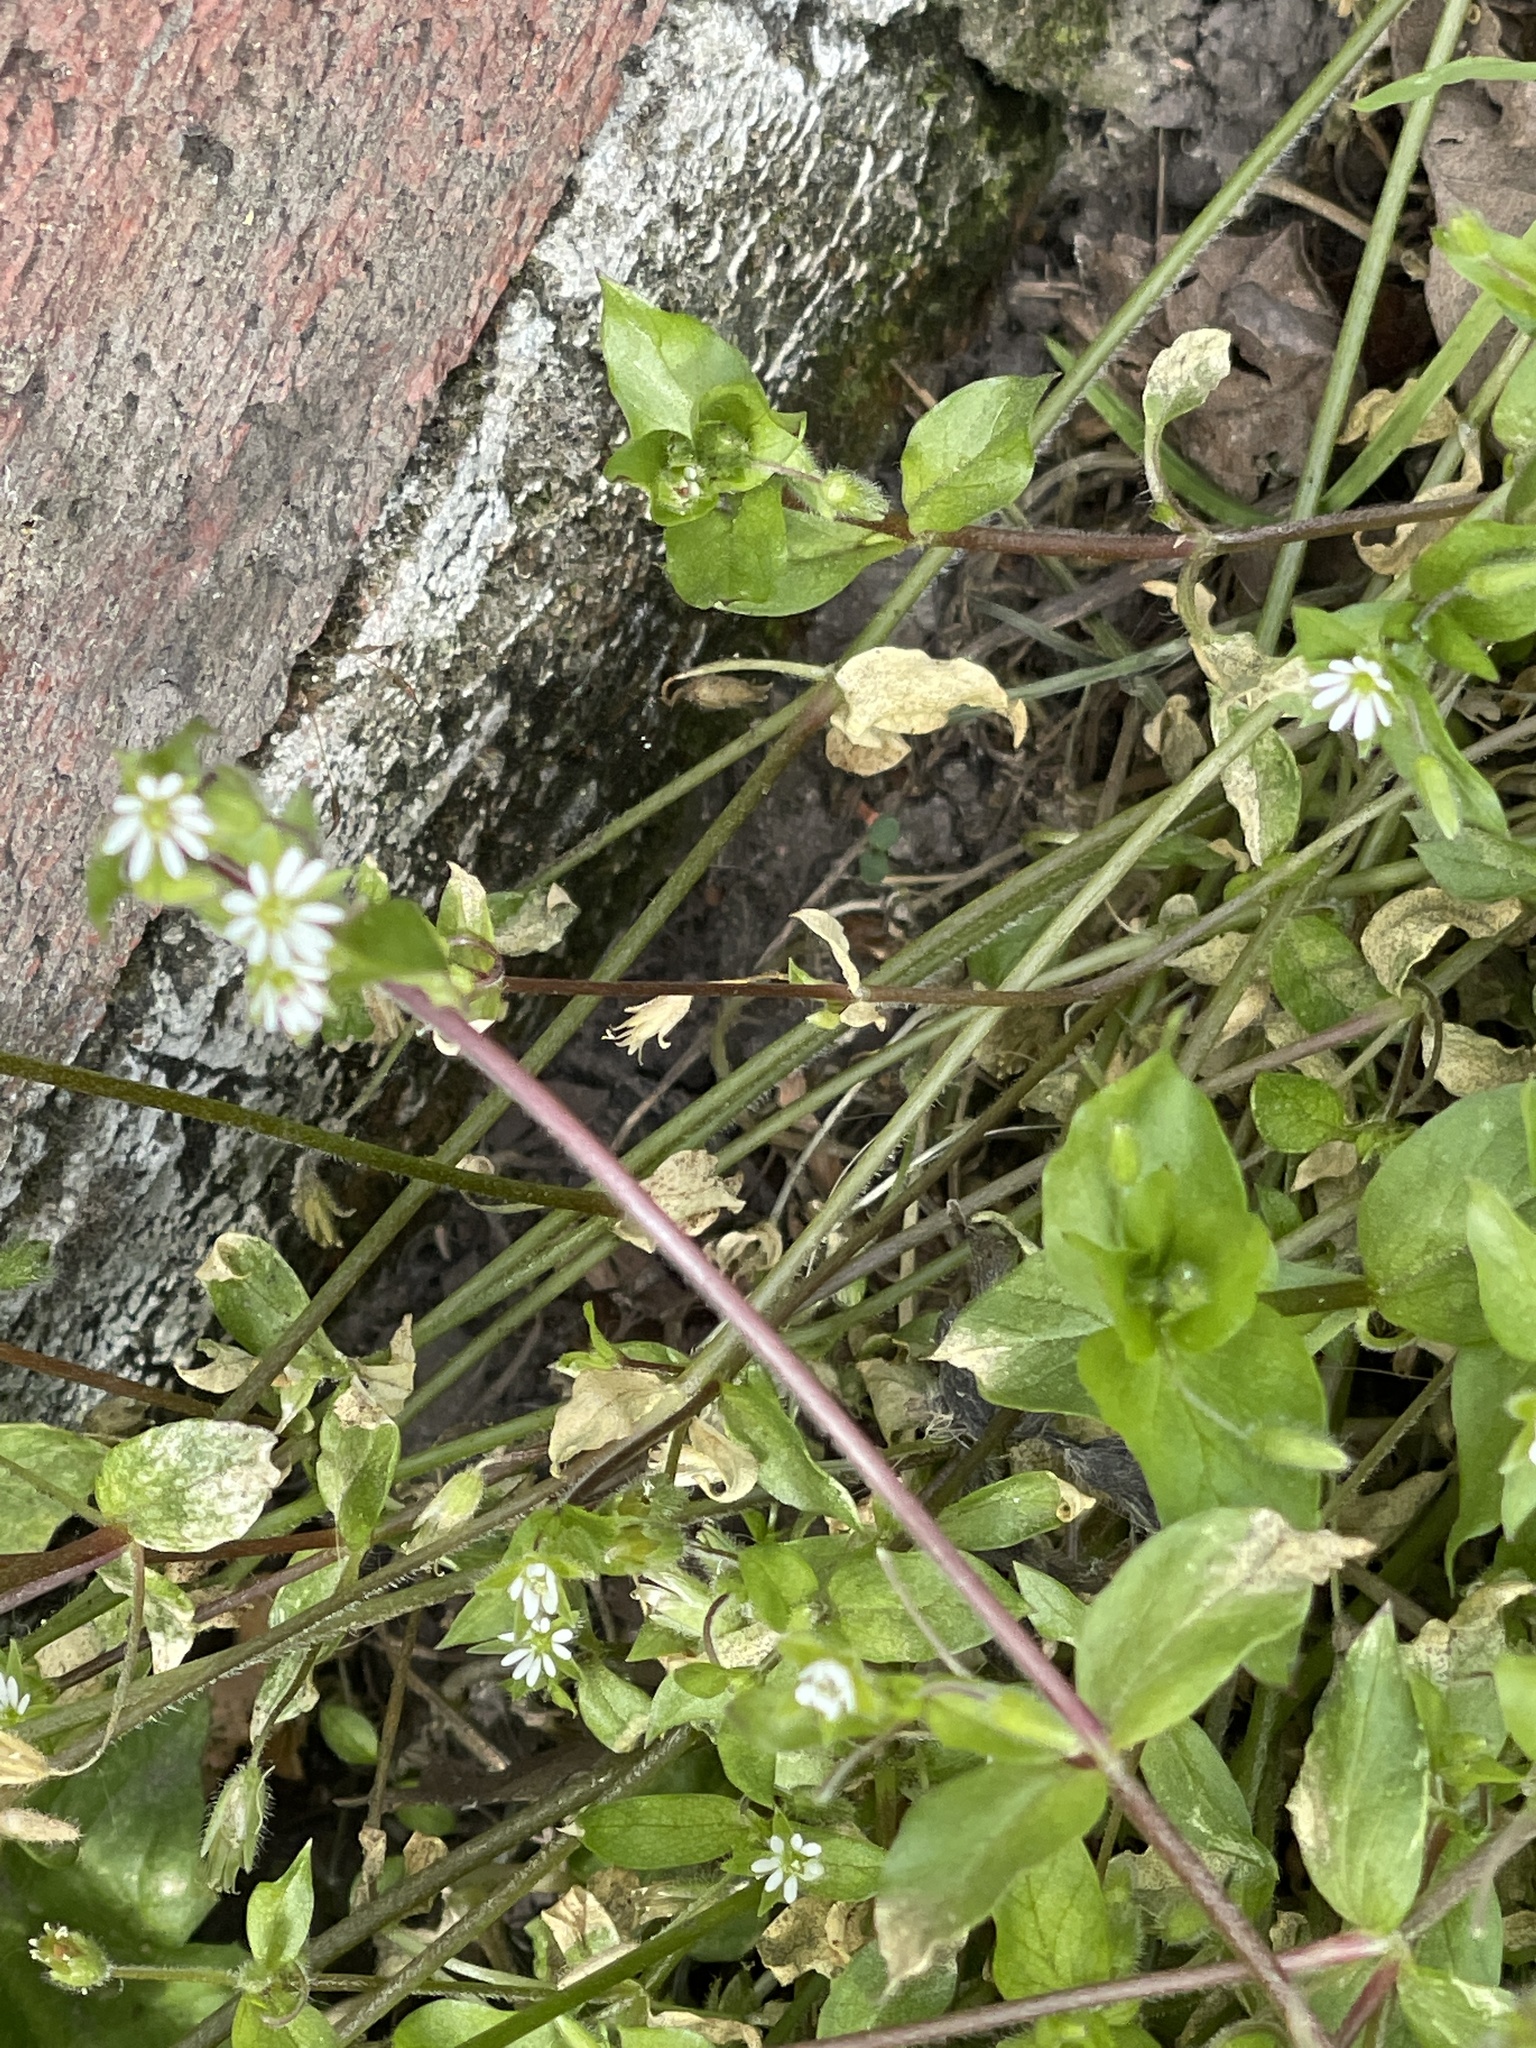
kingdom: Plantae
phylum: Tracheophyta
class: Magnoliopsida
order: Caryophyllales
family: Caryophyllaceae
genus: Stellaria
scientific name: Stellaria media
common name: Common chickweed
